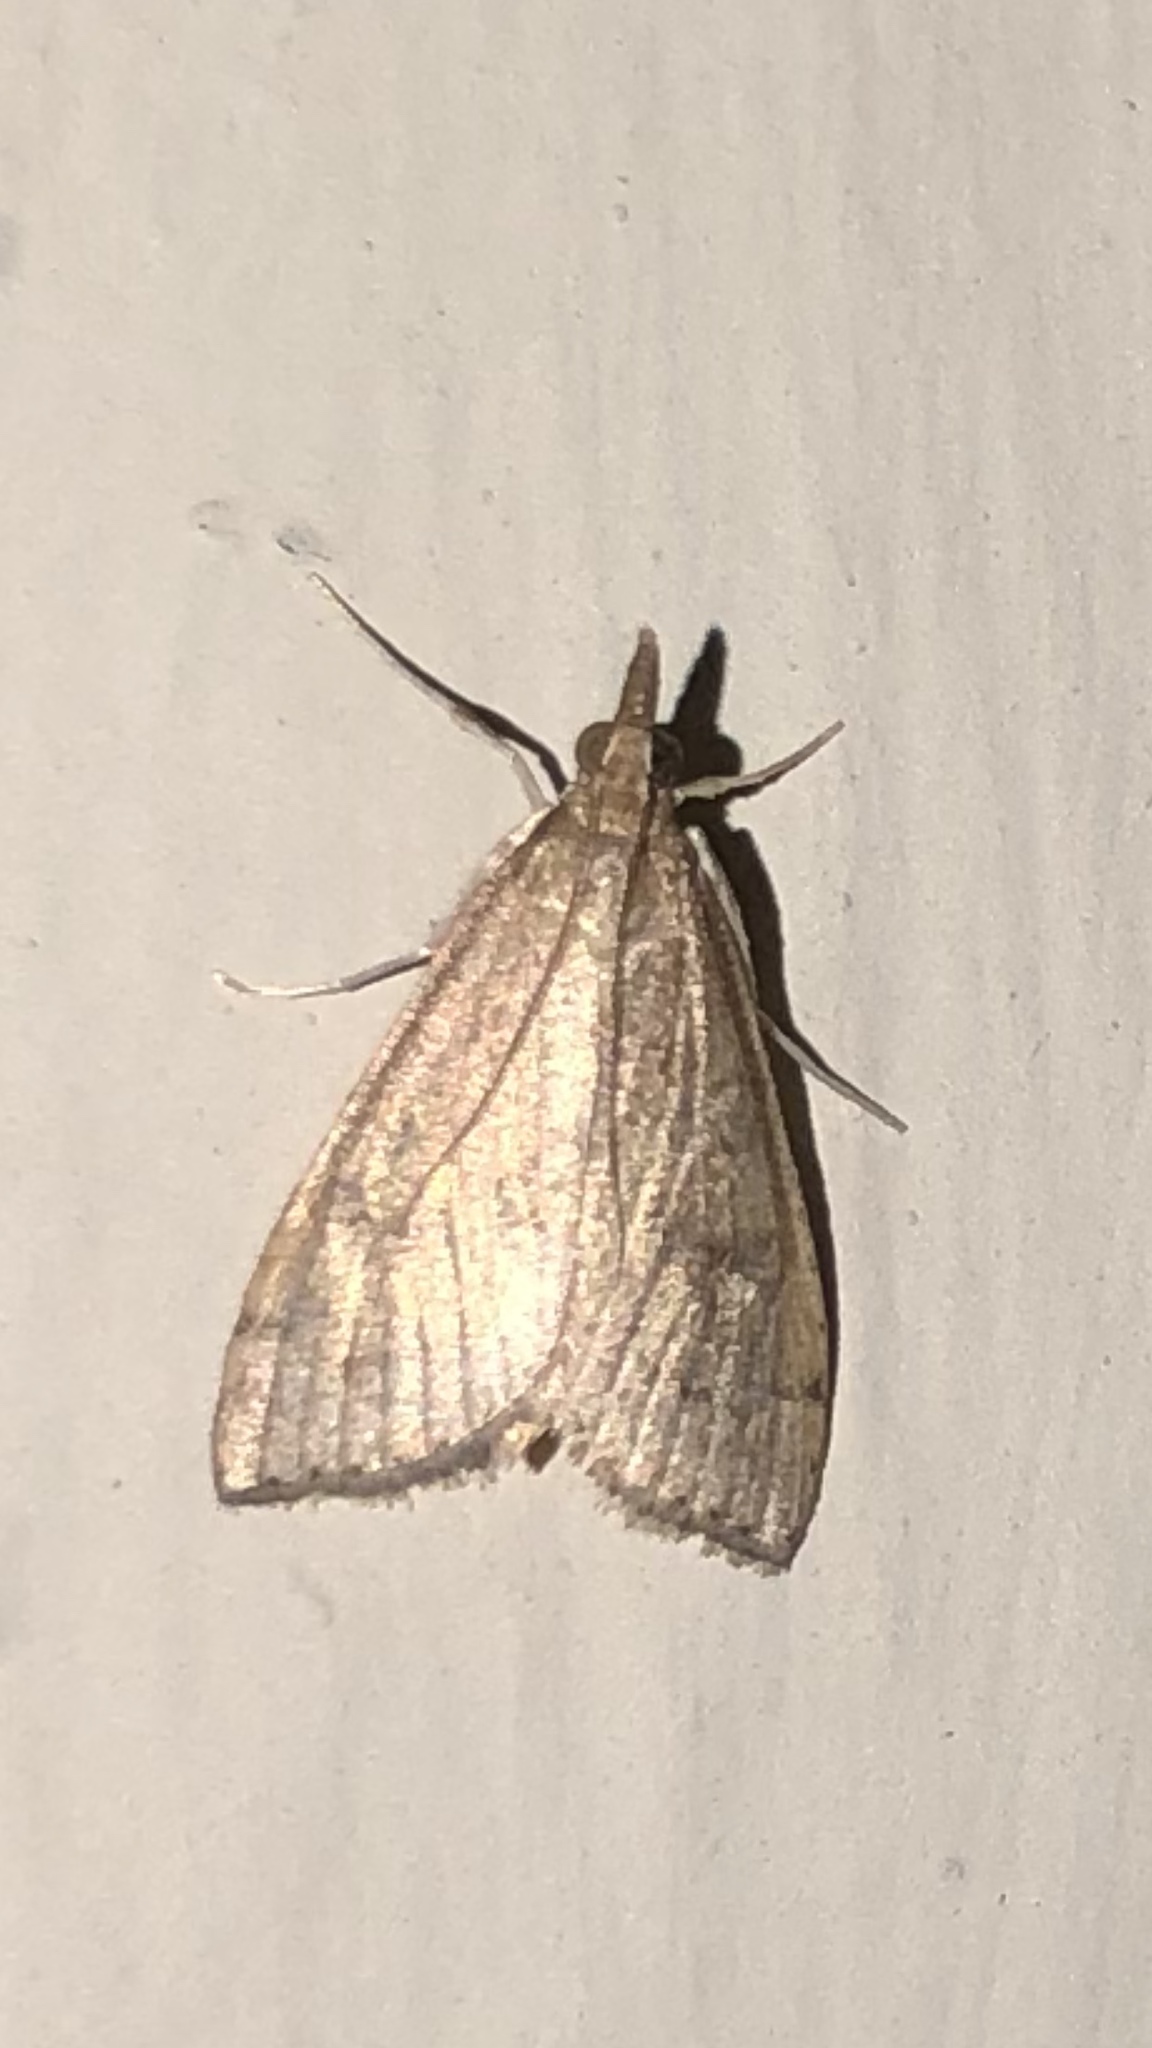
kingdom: Animalia
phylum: Arthropoda
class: Insecta
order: Lepidoptera
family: Crambidae
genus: Udea
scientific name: Udea rubigalis
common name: Celery leaftier moth
